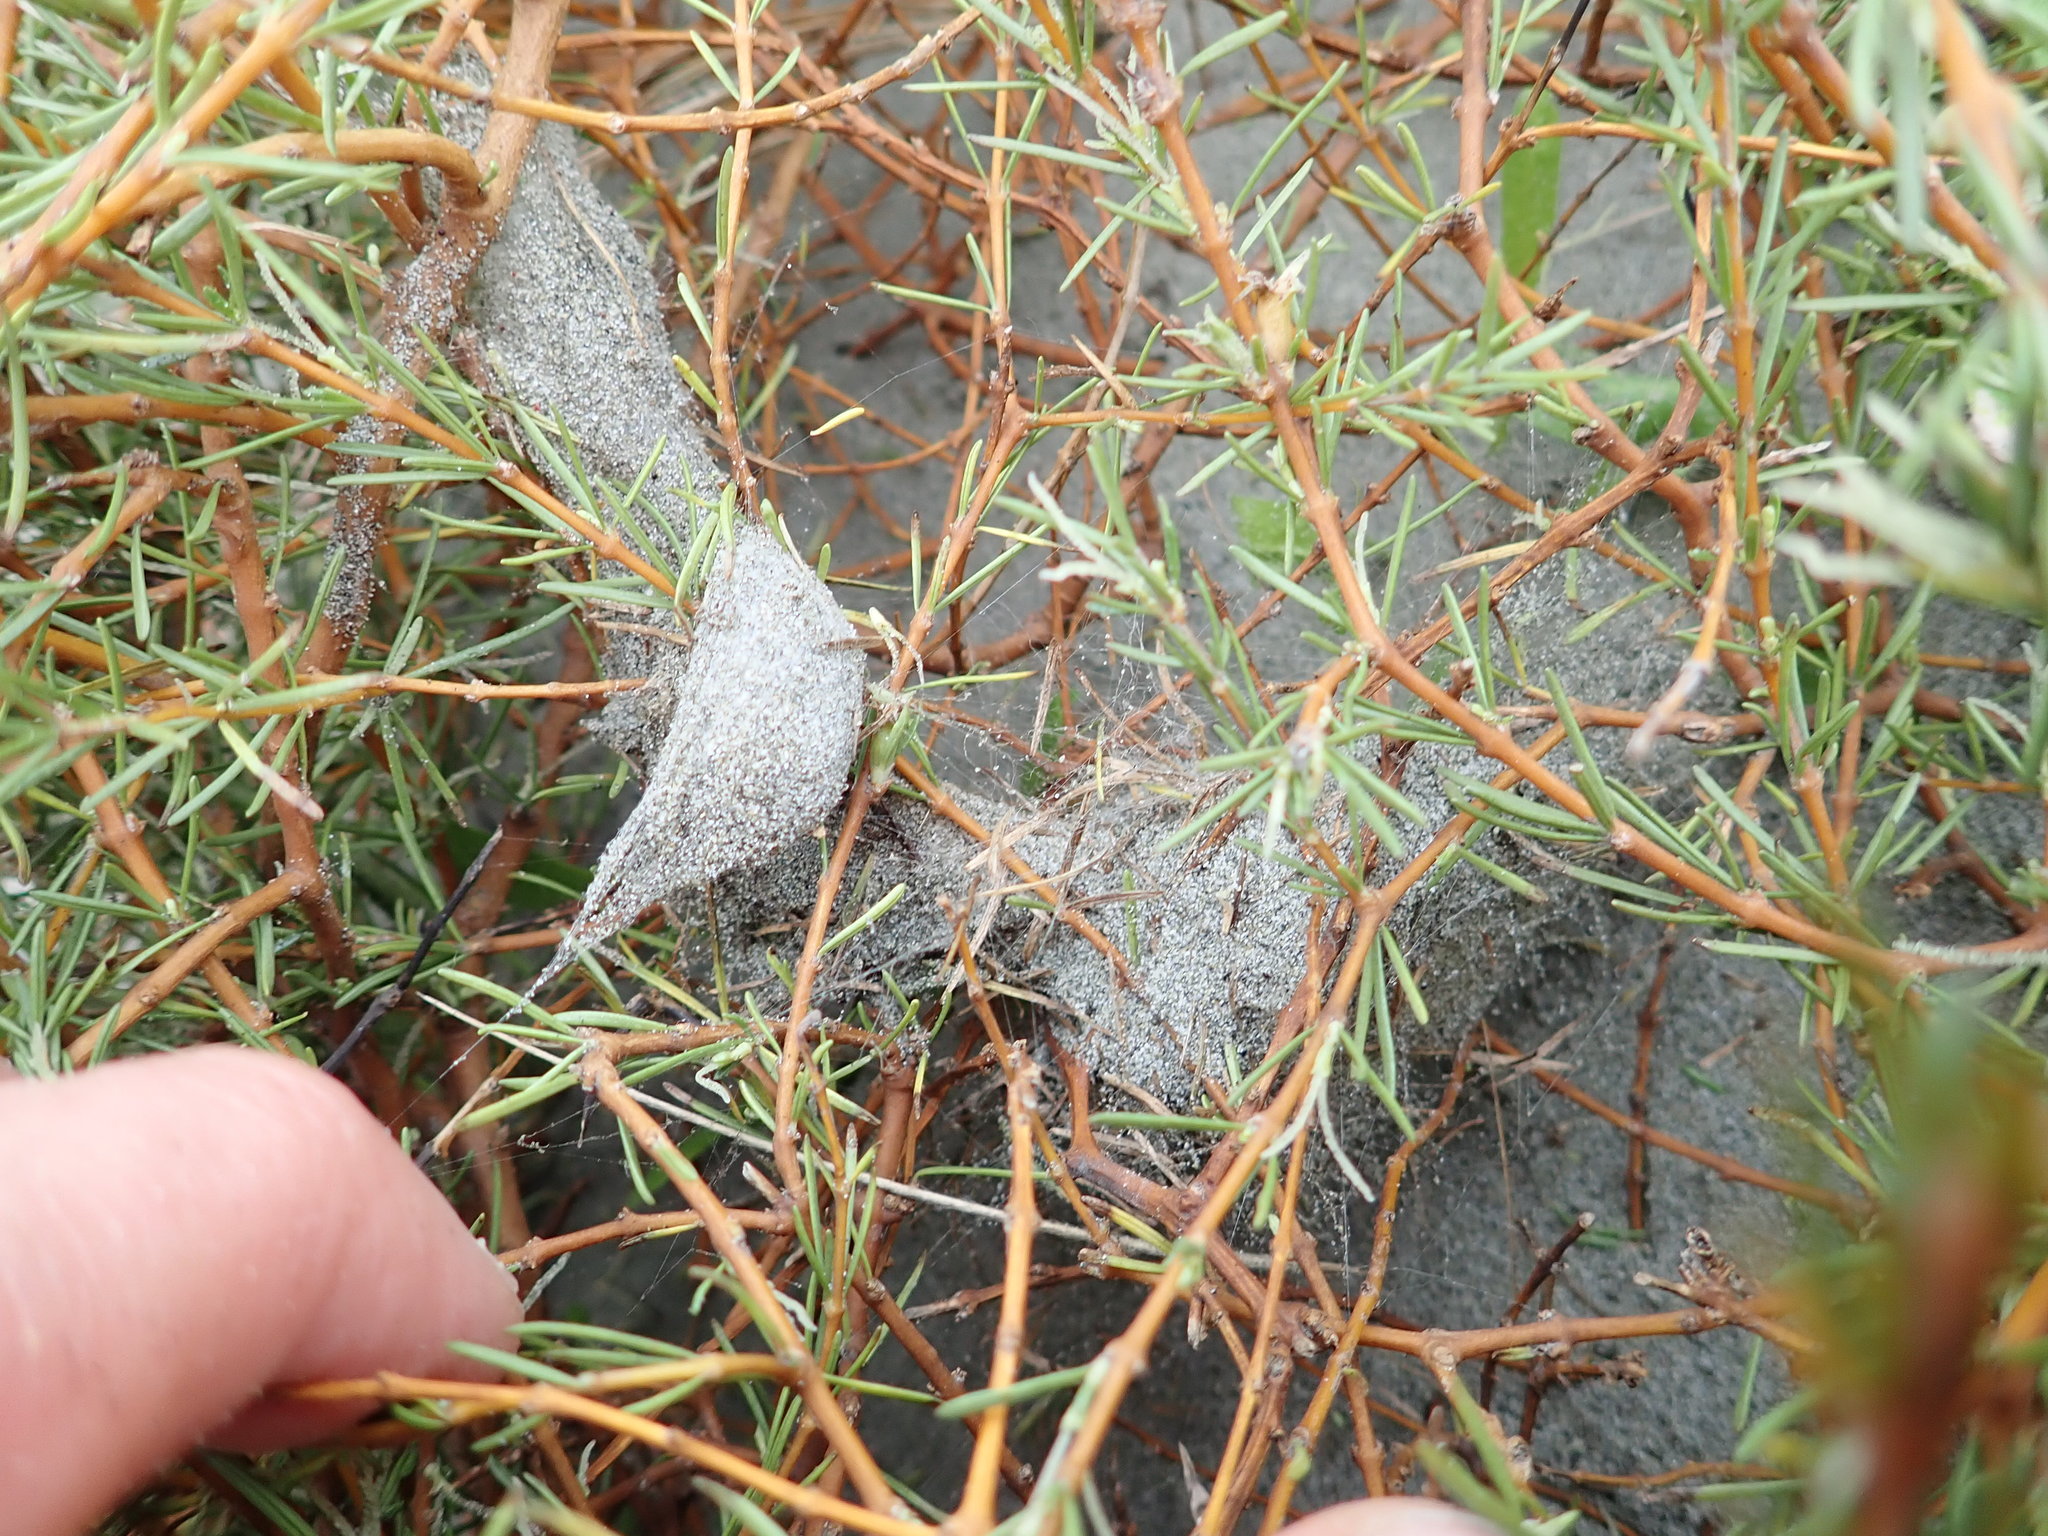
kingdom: Plantae
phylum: Tracheophyta
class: Magnoliopsida
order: Gentianales
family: Rubiaceae
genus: Coprosma
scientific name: Coprosma acerosa
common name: Sand coprosma
